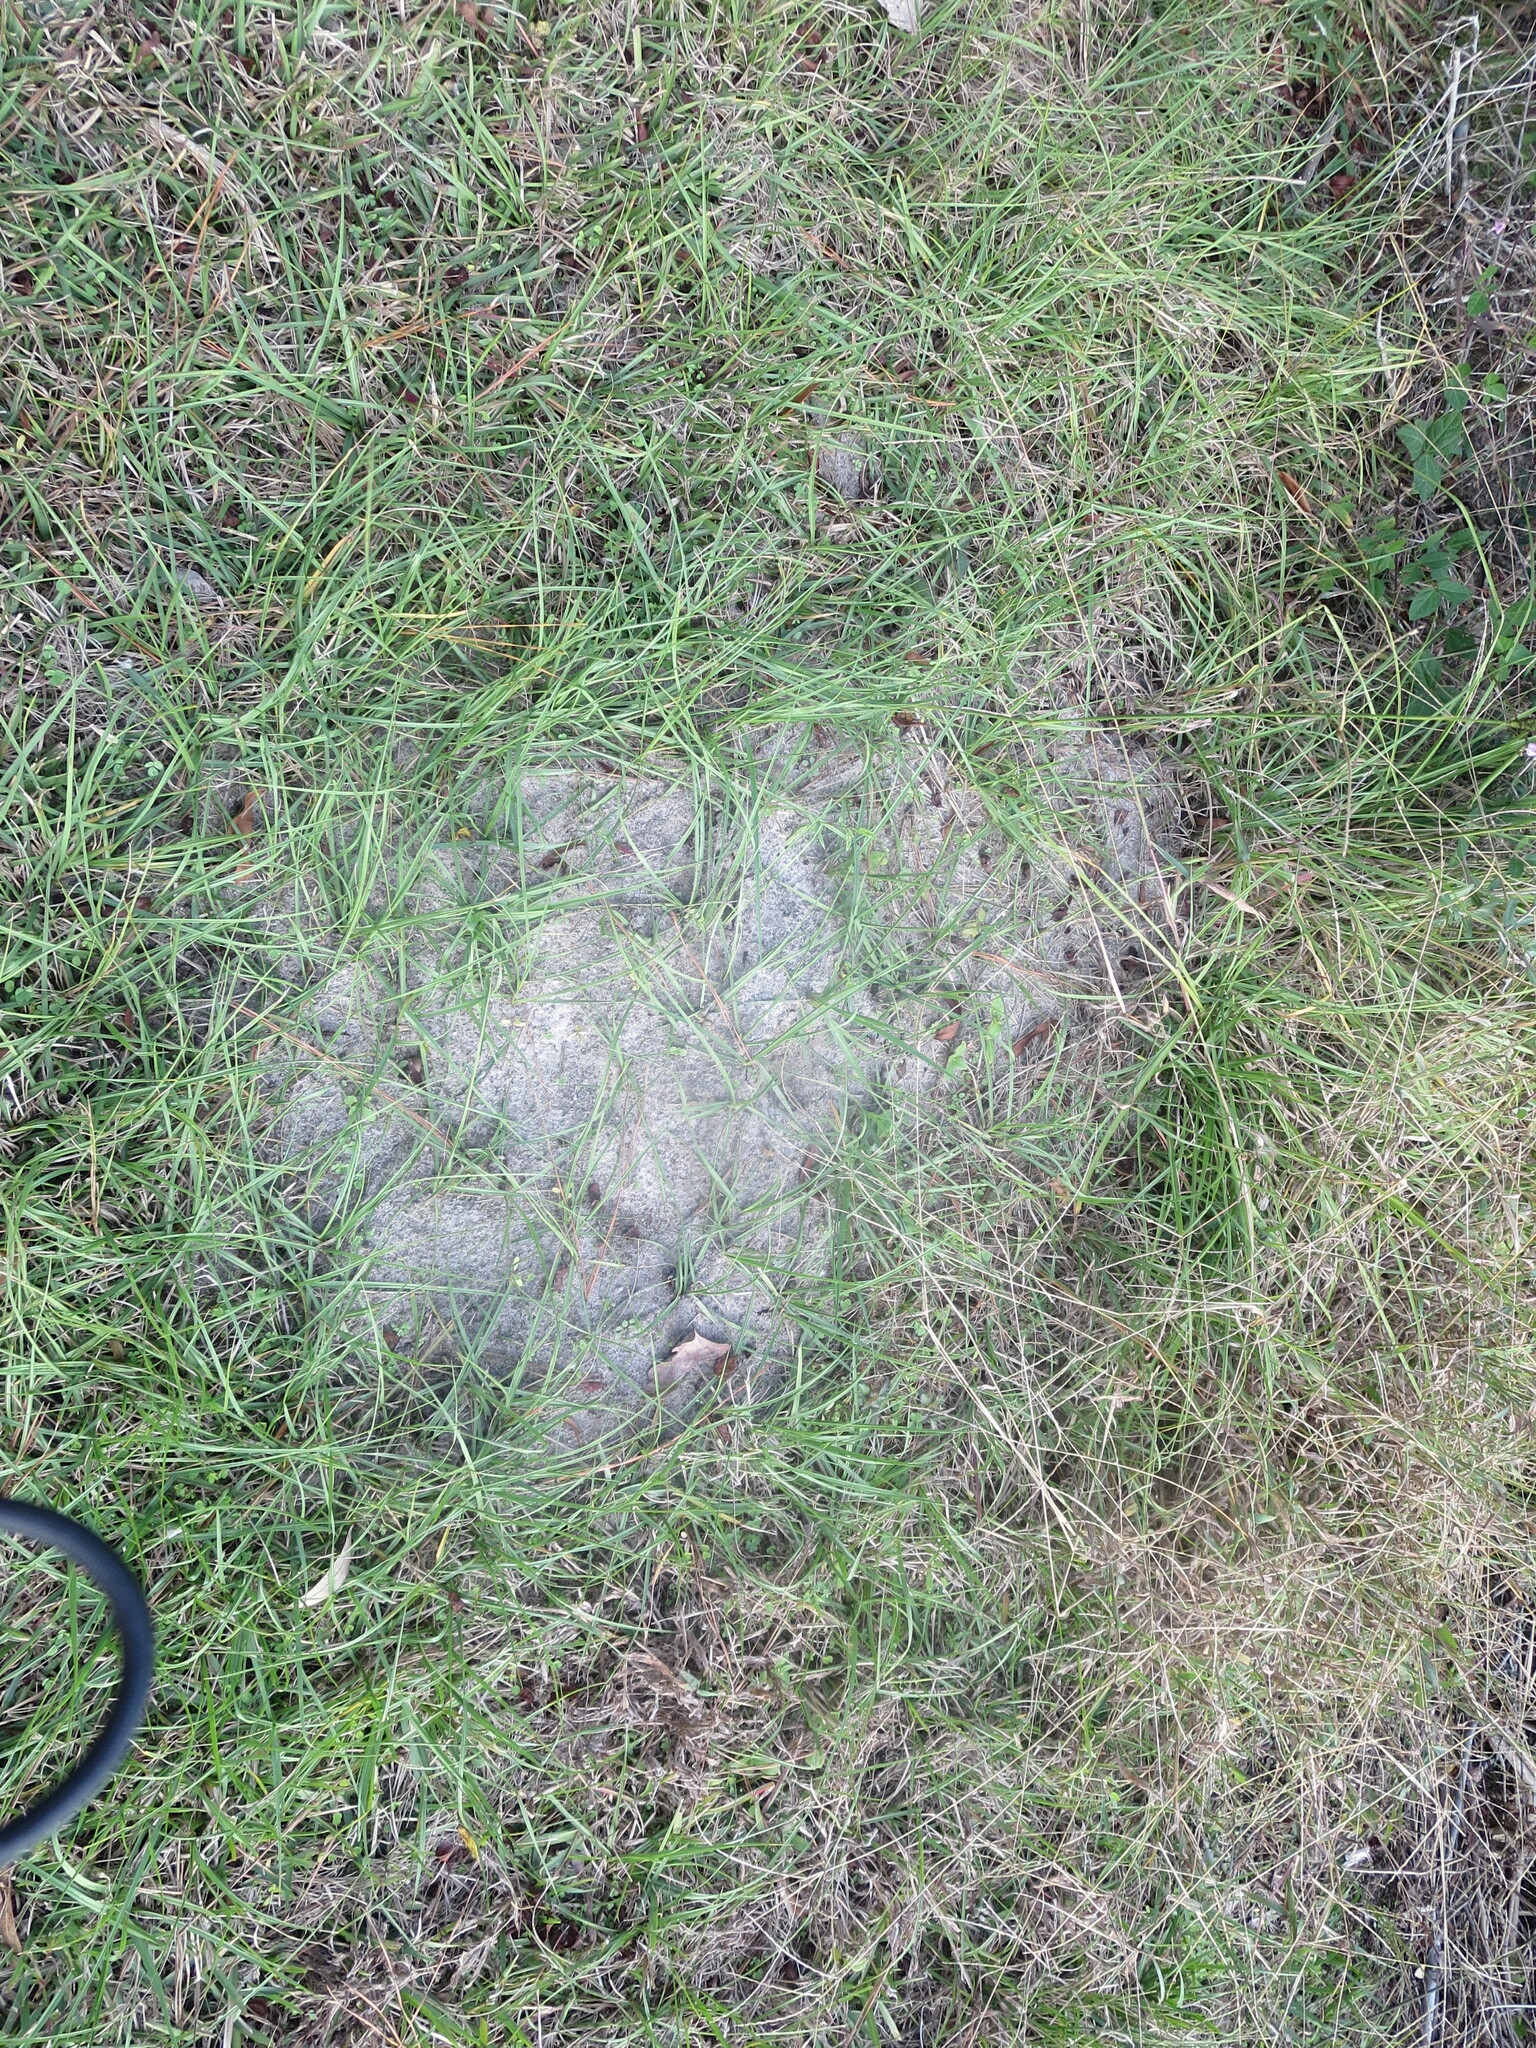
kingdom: Animalia
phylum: Arthropoda
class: Insecta
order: Hymenoptera
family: Formicidae
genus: Solenopsis
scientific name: Solenopsis invicta
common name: Red imported fire ant
